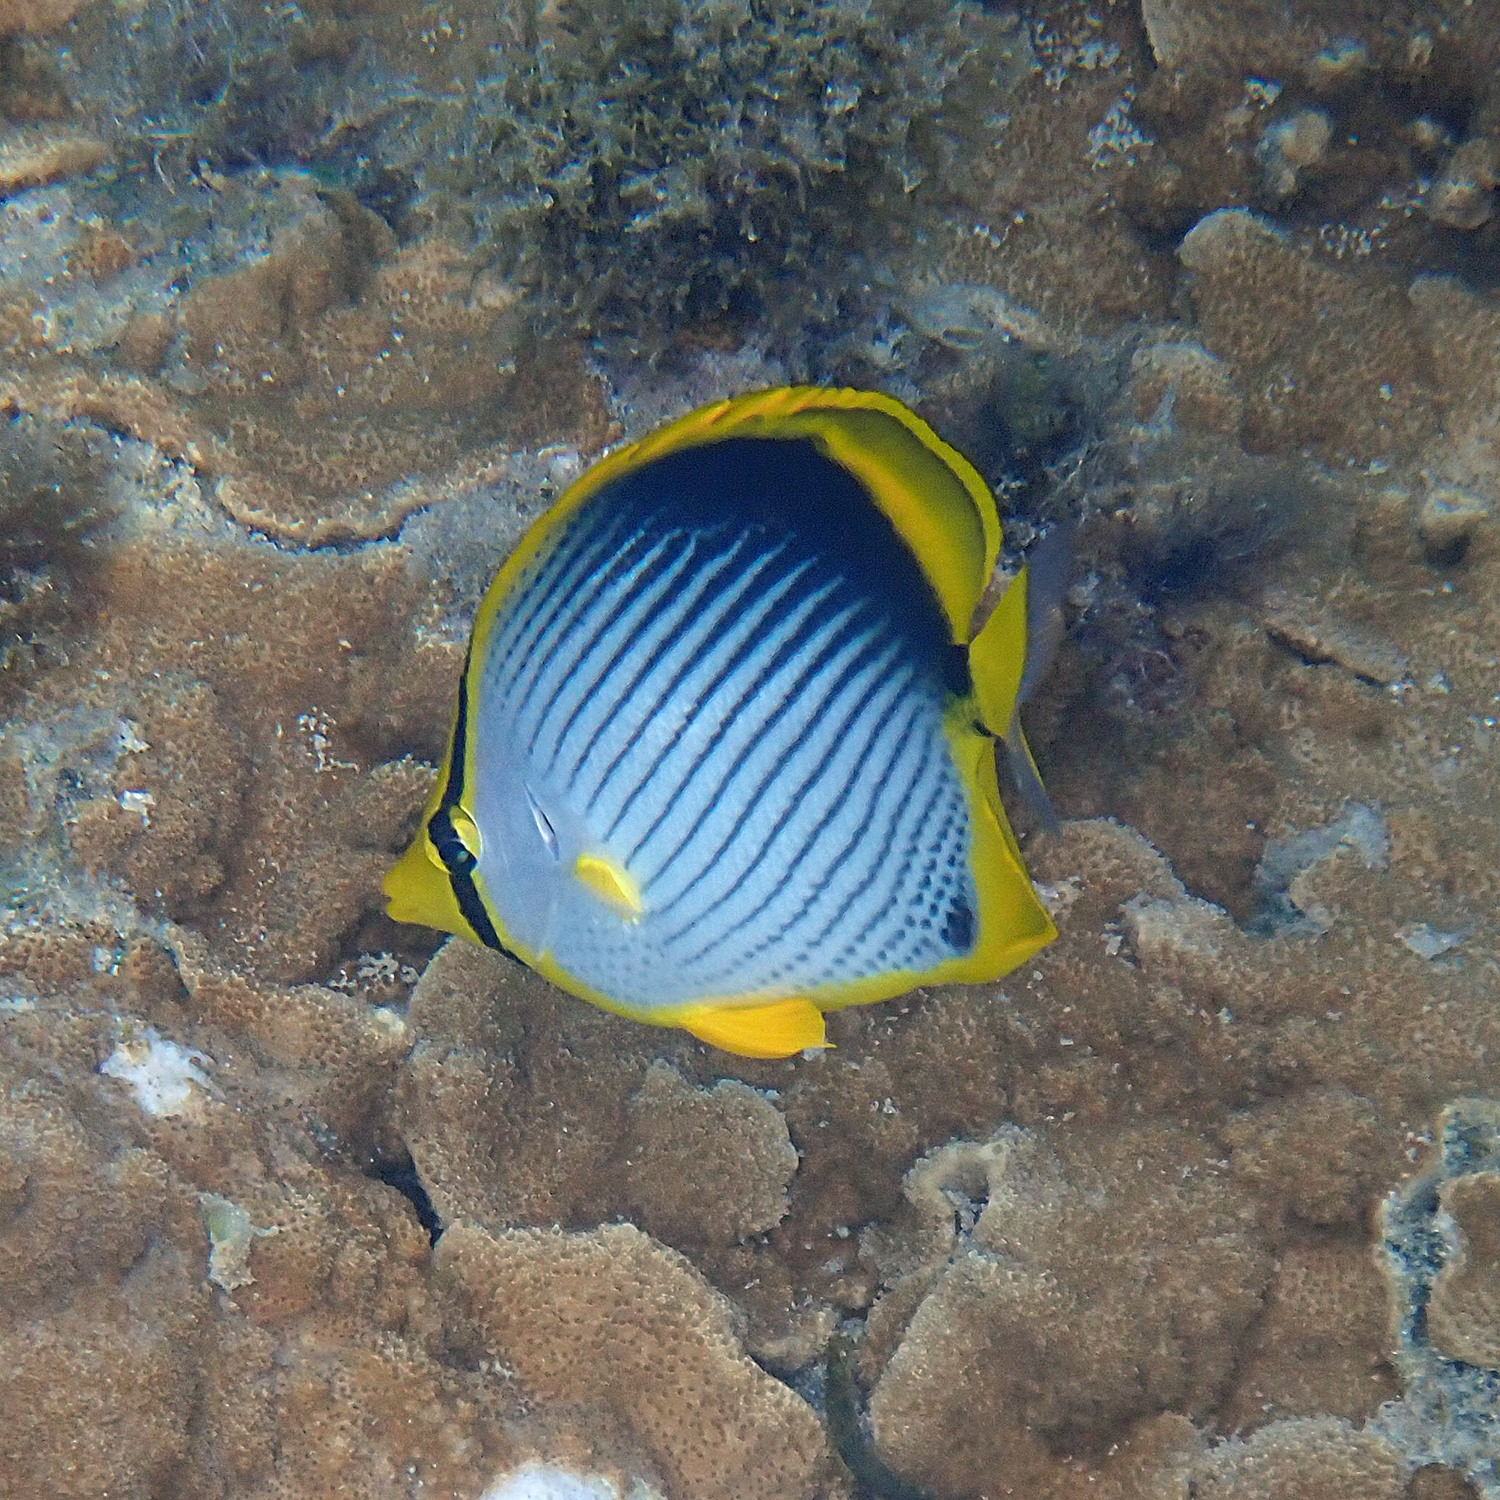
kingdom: Animalia
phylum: Chordata
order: Perciformes
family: Chaetodontidae
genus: Chaetodon
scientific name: Chaetodon melannotus
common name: Blackback butterflyfish
